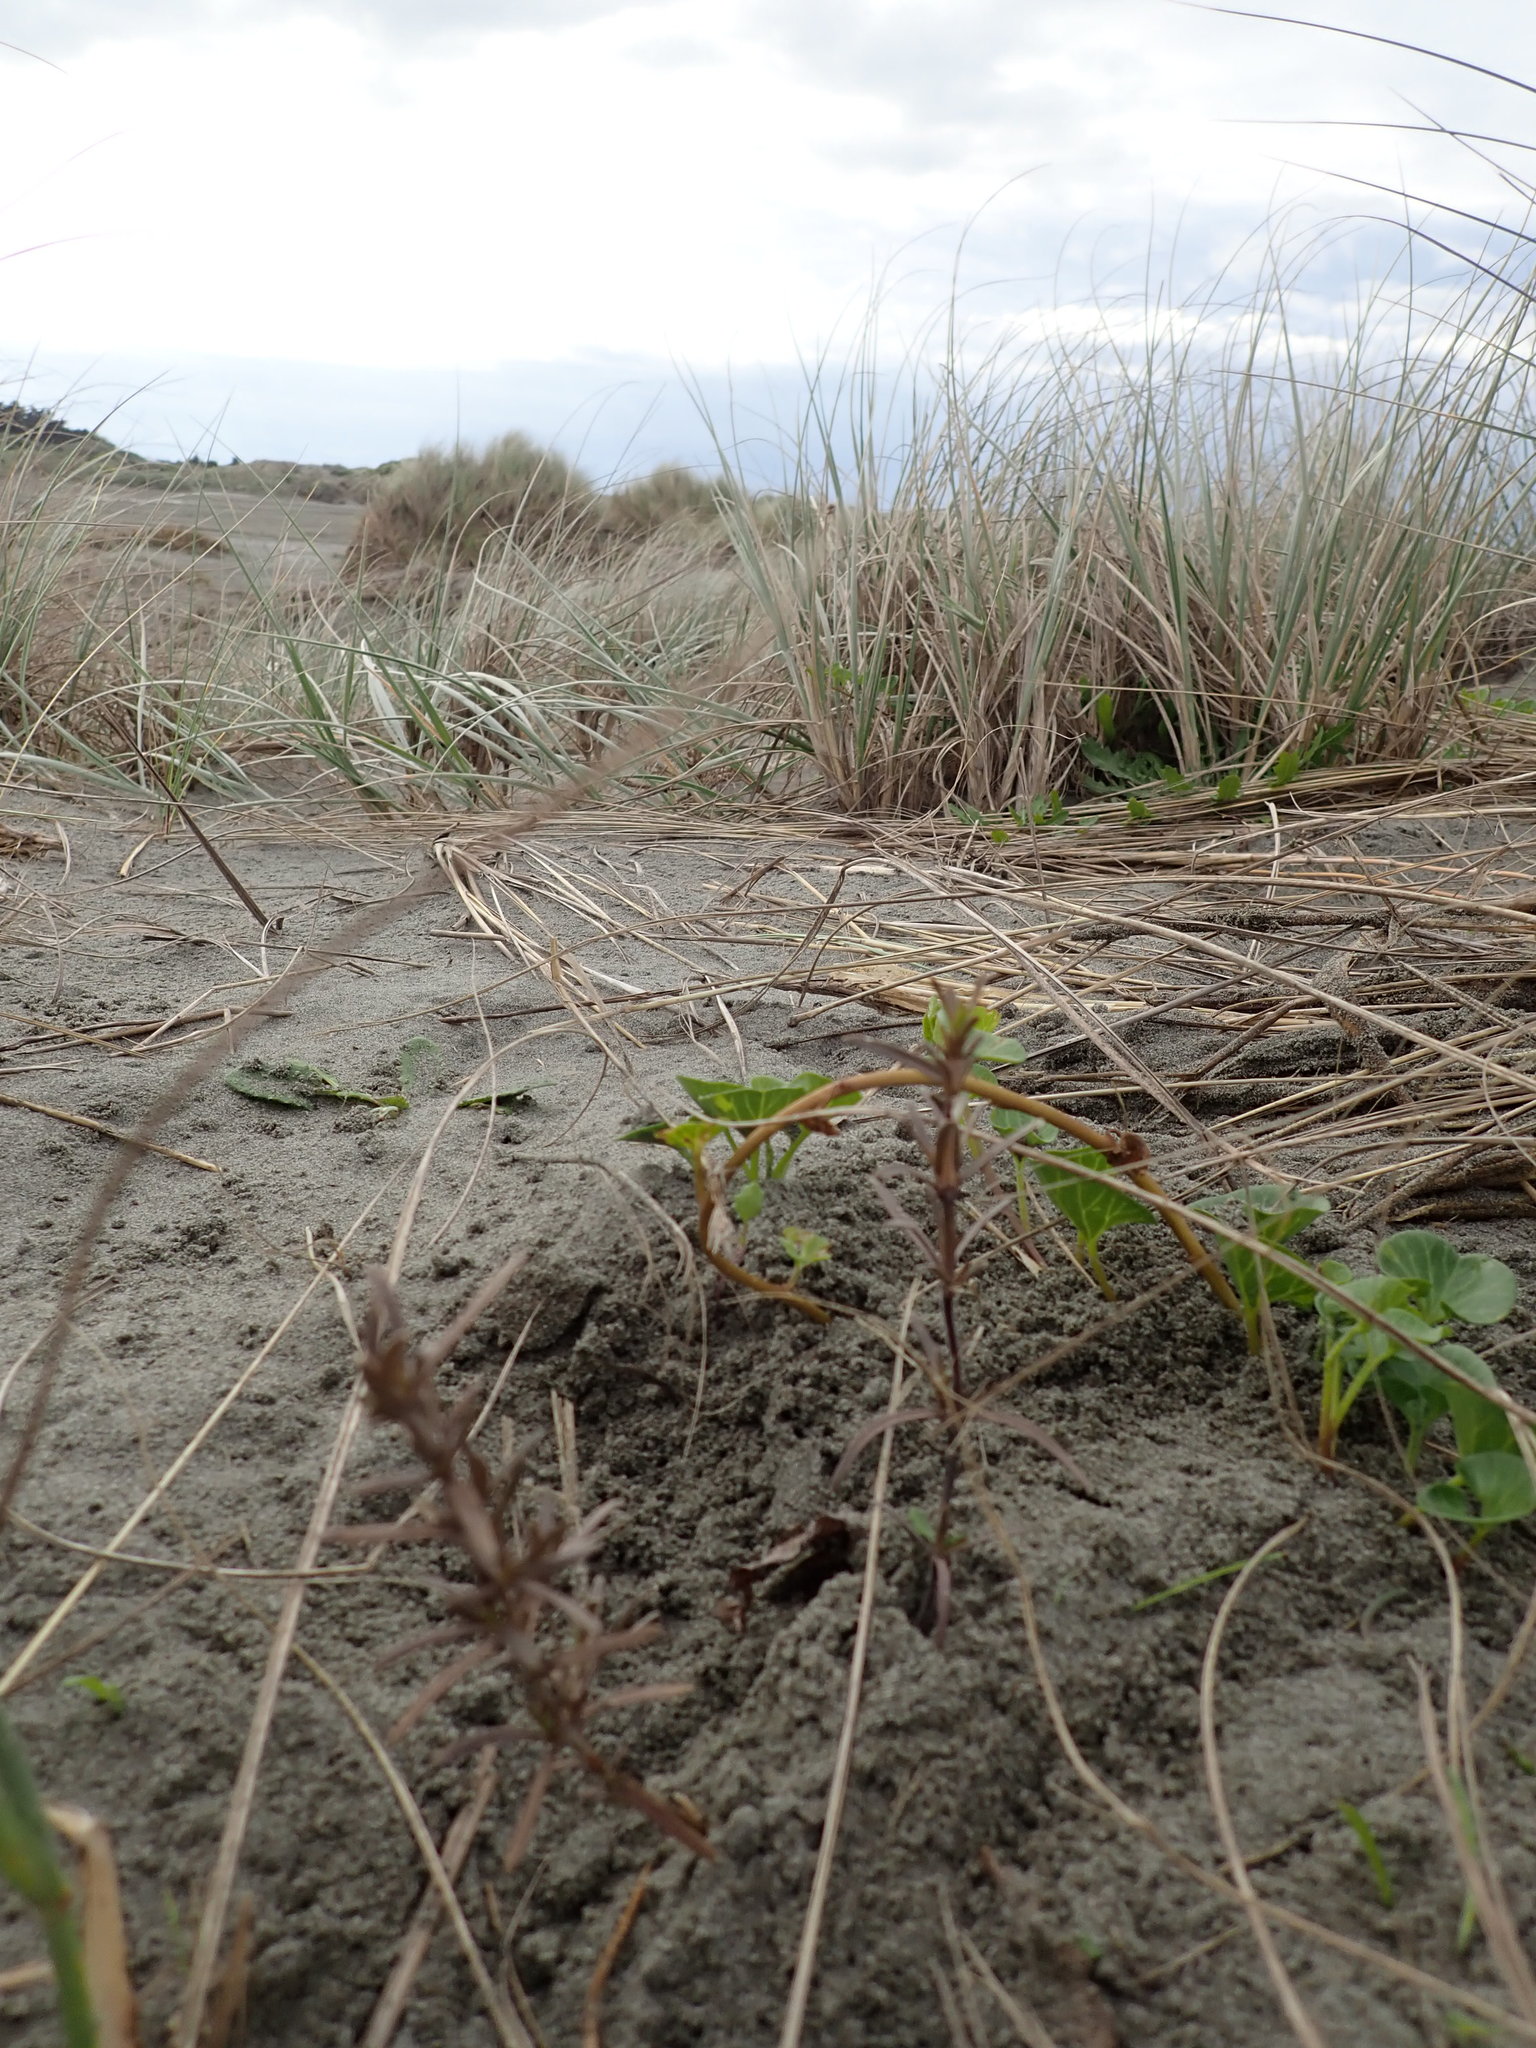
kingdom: Plantae
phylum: Tracheophyta
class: Magnoliopsida
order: Gentianales
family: Rubiaceae
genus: Coprosma
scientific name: Coprosma acerosa
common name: Sand coprosma
